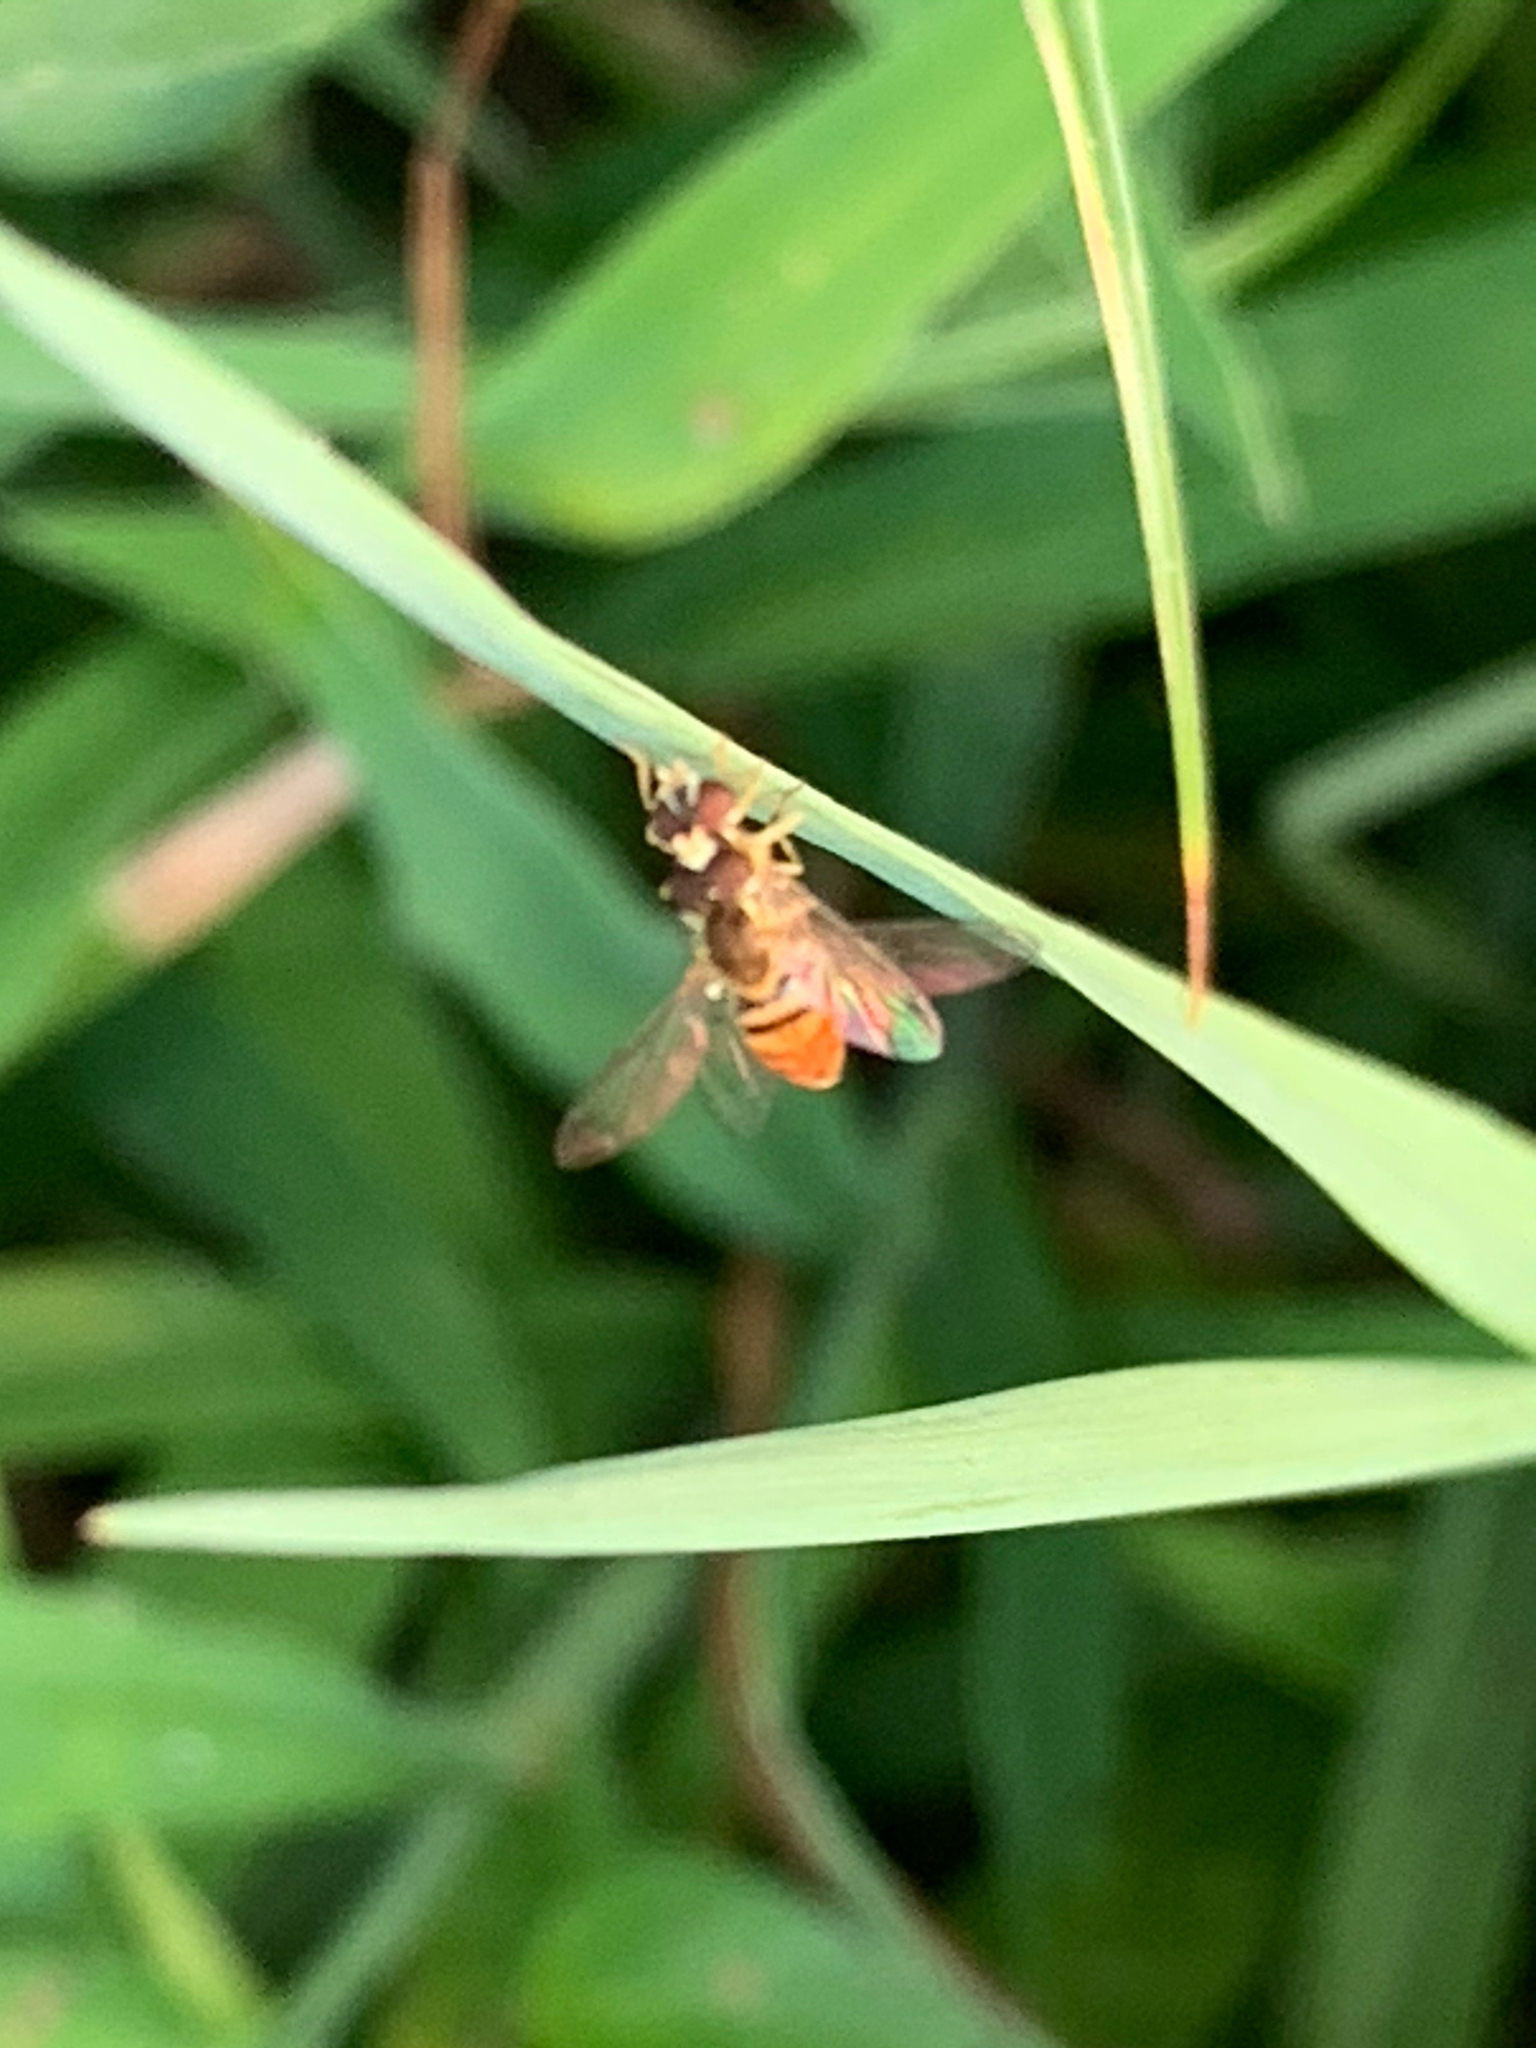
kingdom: Animalia
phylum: Arthropoda
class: Insecta
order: Diptera
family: Syrphidae
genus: Toxomerus
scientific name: Toxomerus marginatus
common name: Syrphid fly
